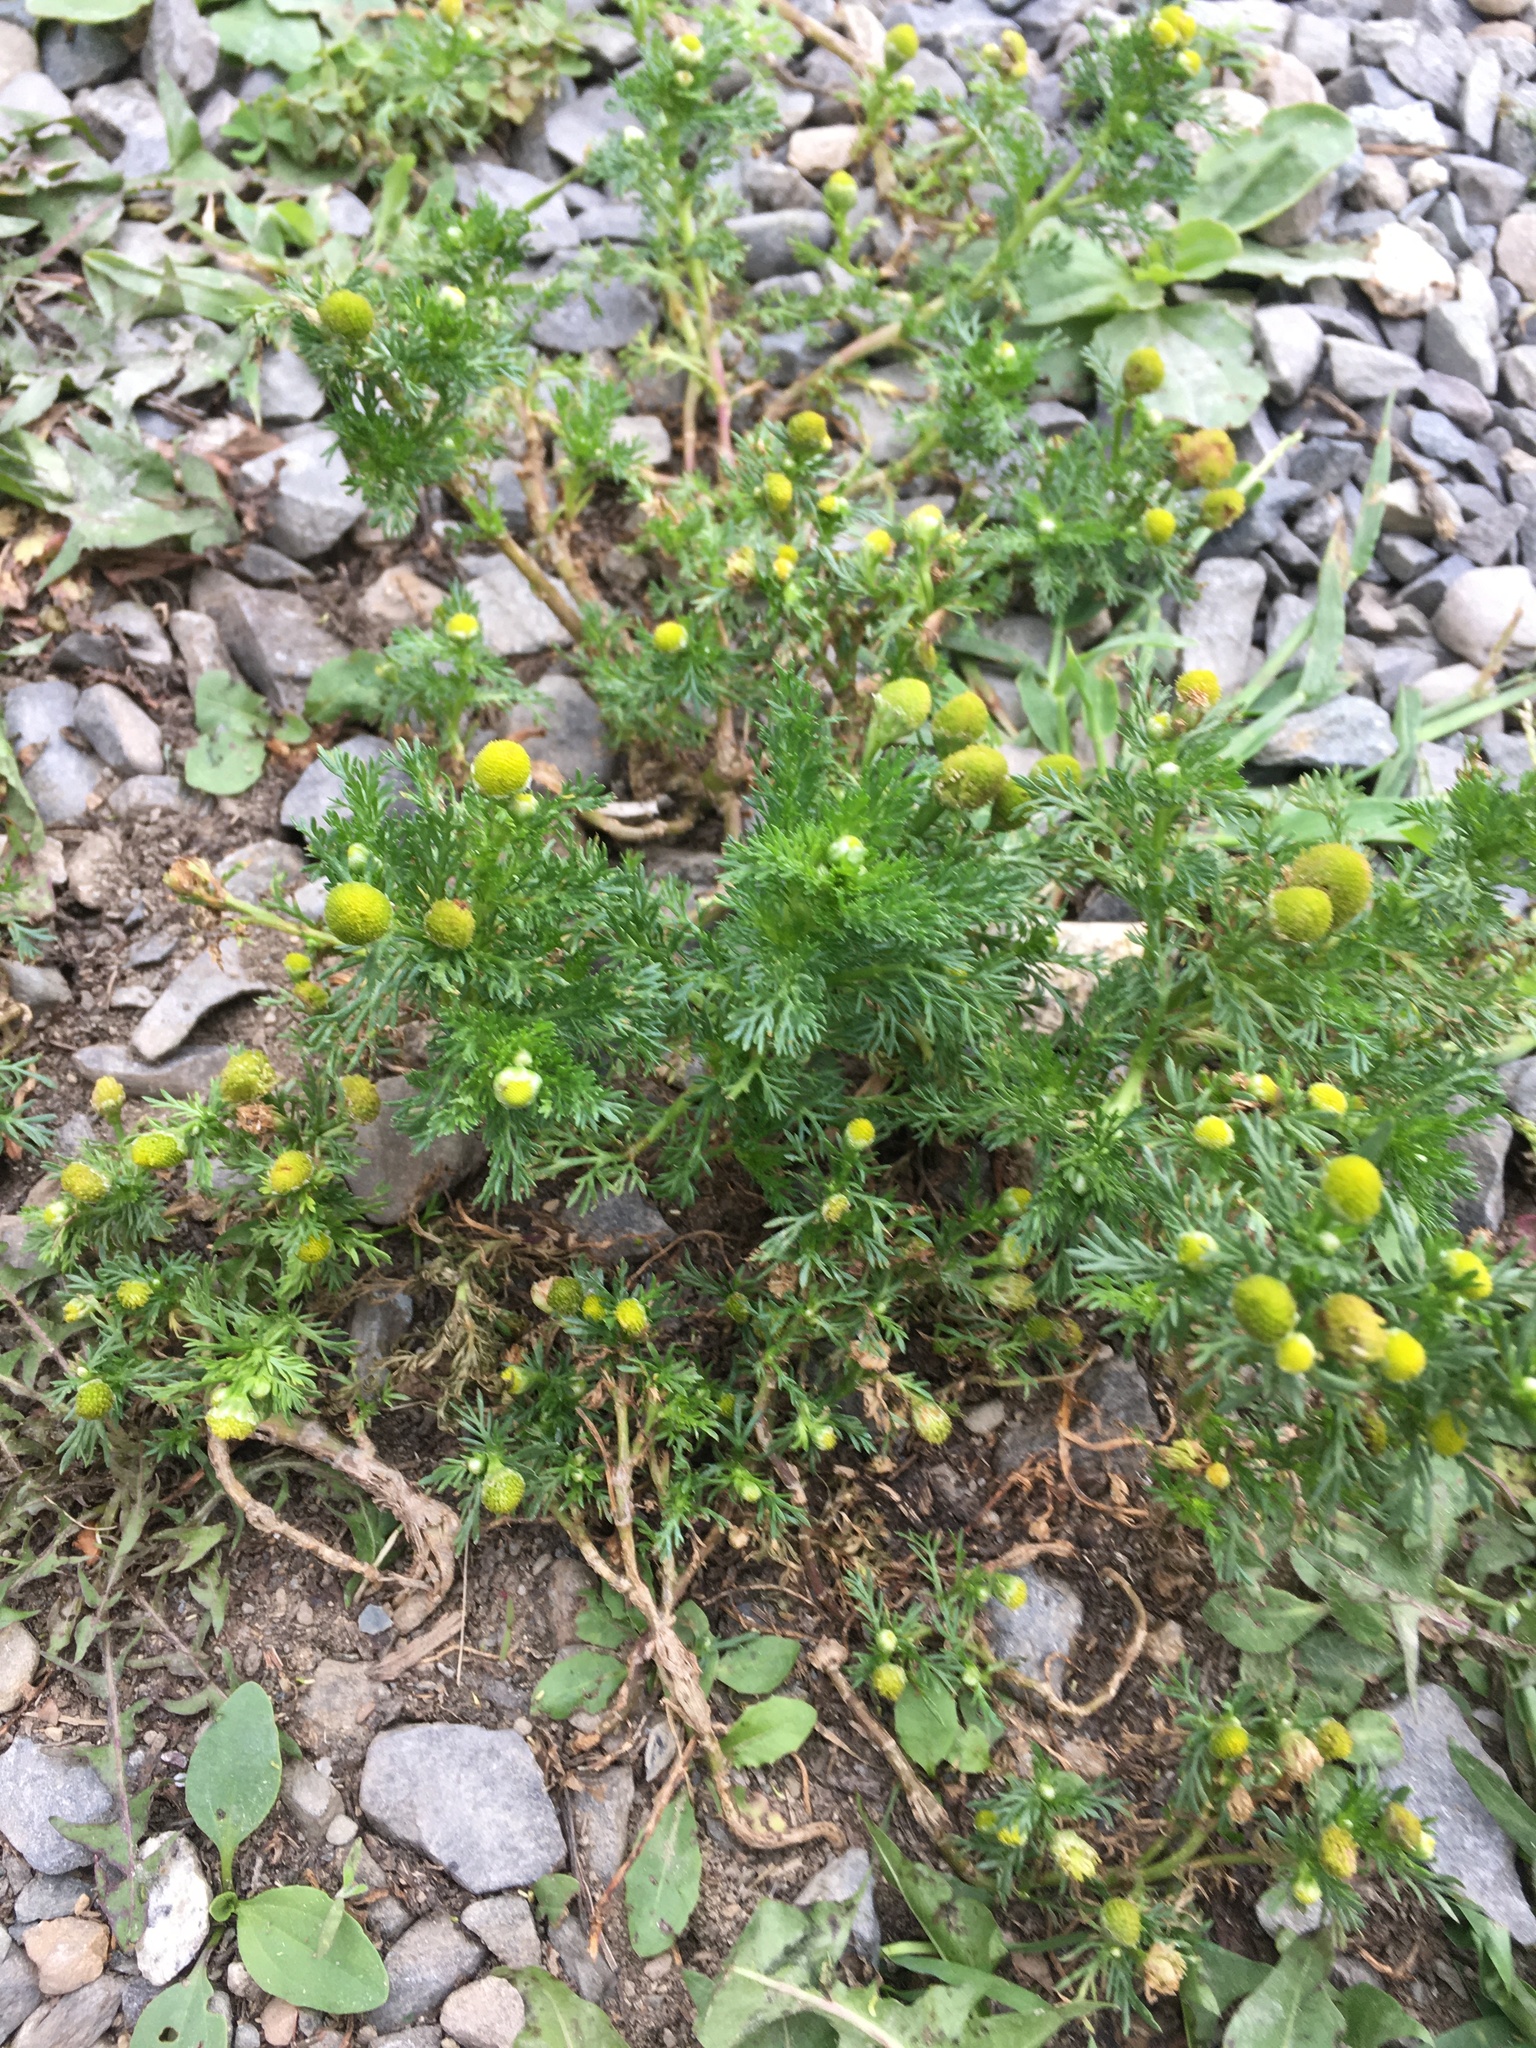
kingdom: Plantae
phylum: Tracheophyta
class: Magnoliopsida
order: Asterales
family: Asteraceae
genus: Matricaria
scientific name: Matricaria discoidea
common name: Disc mayweed
